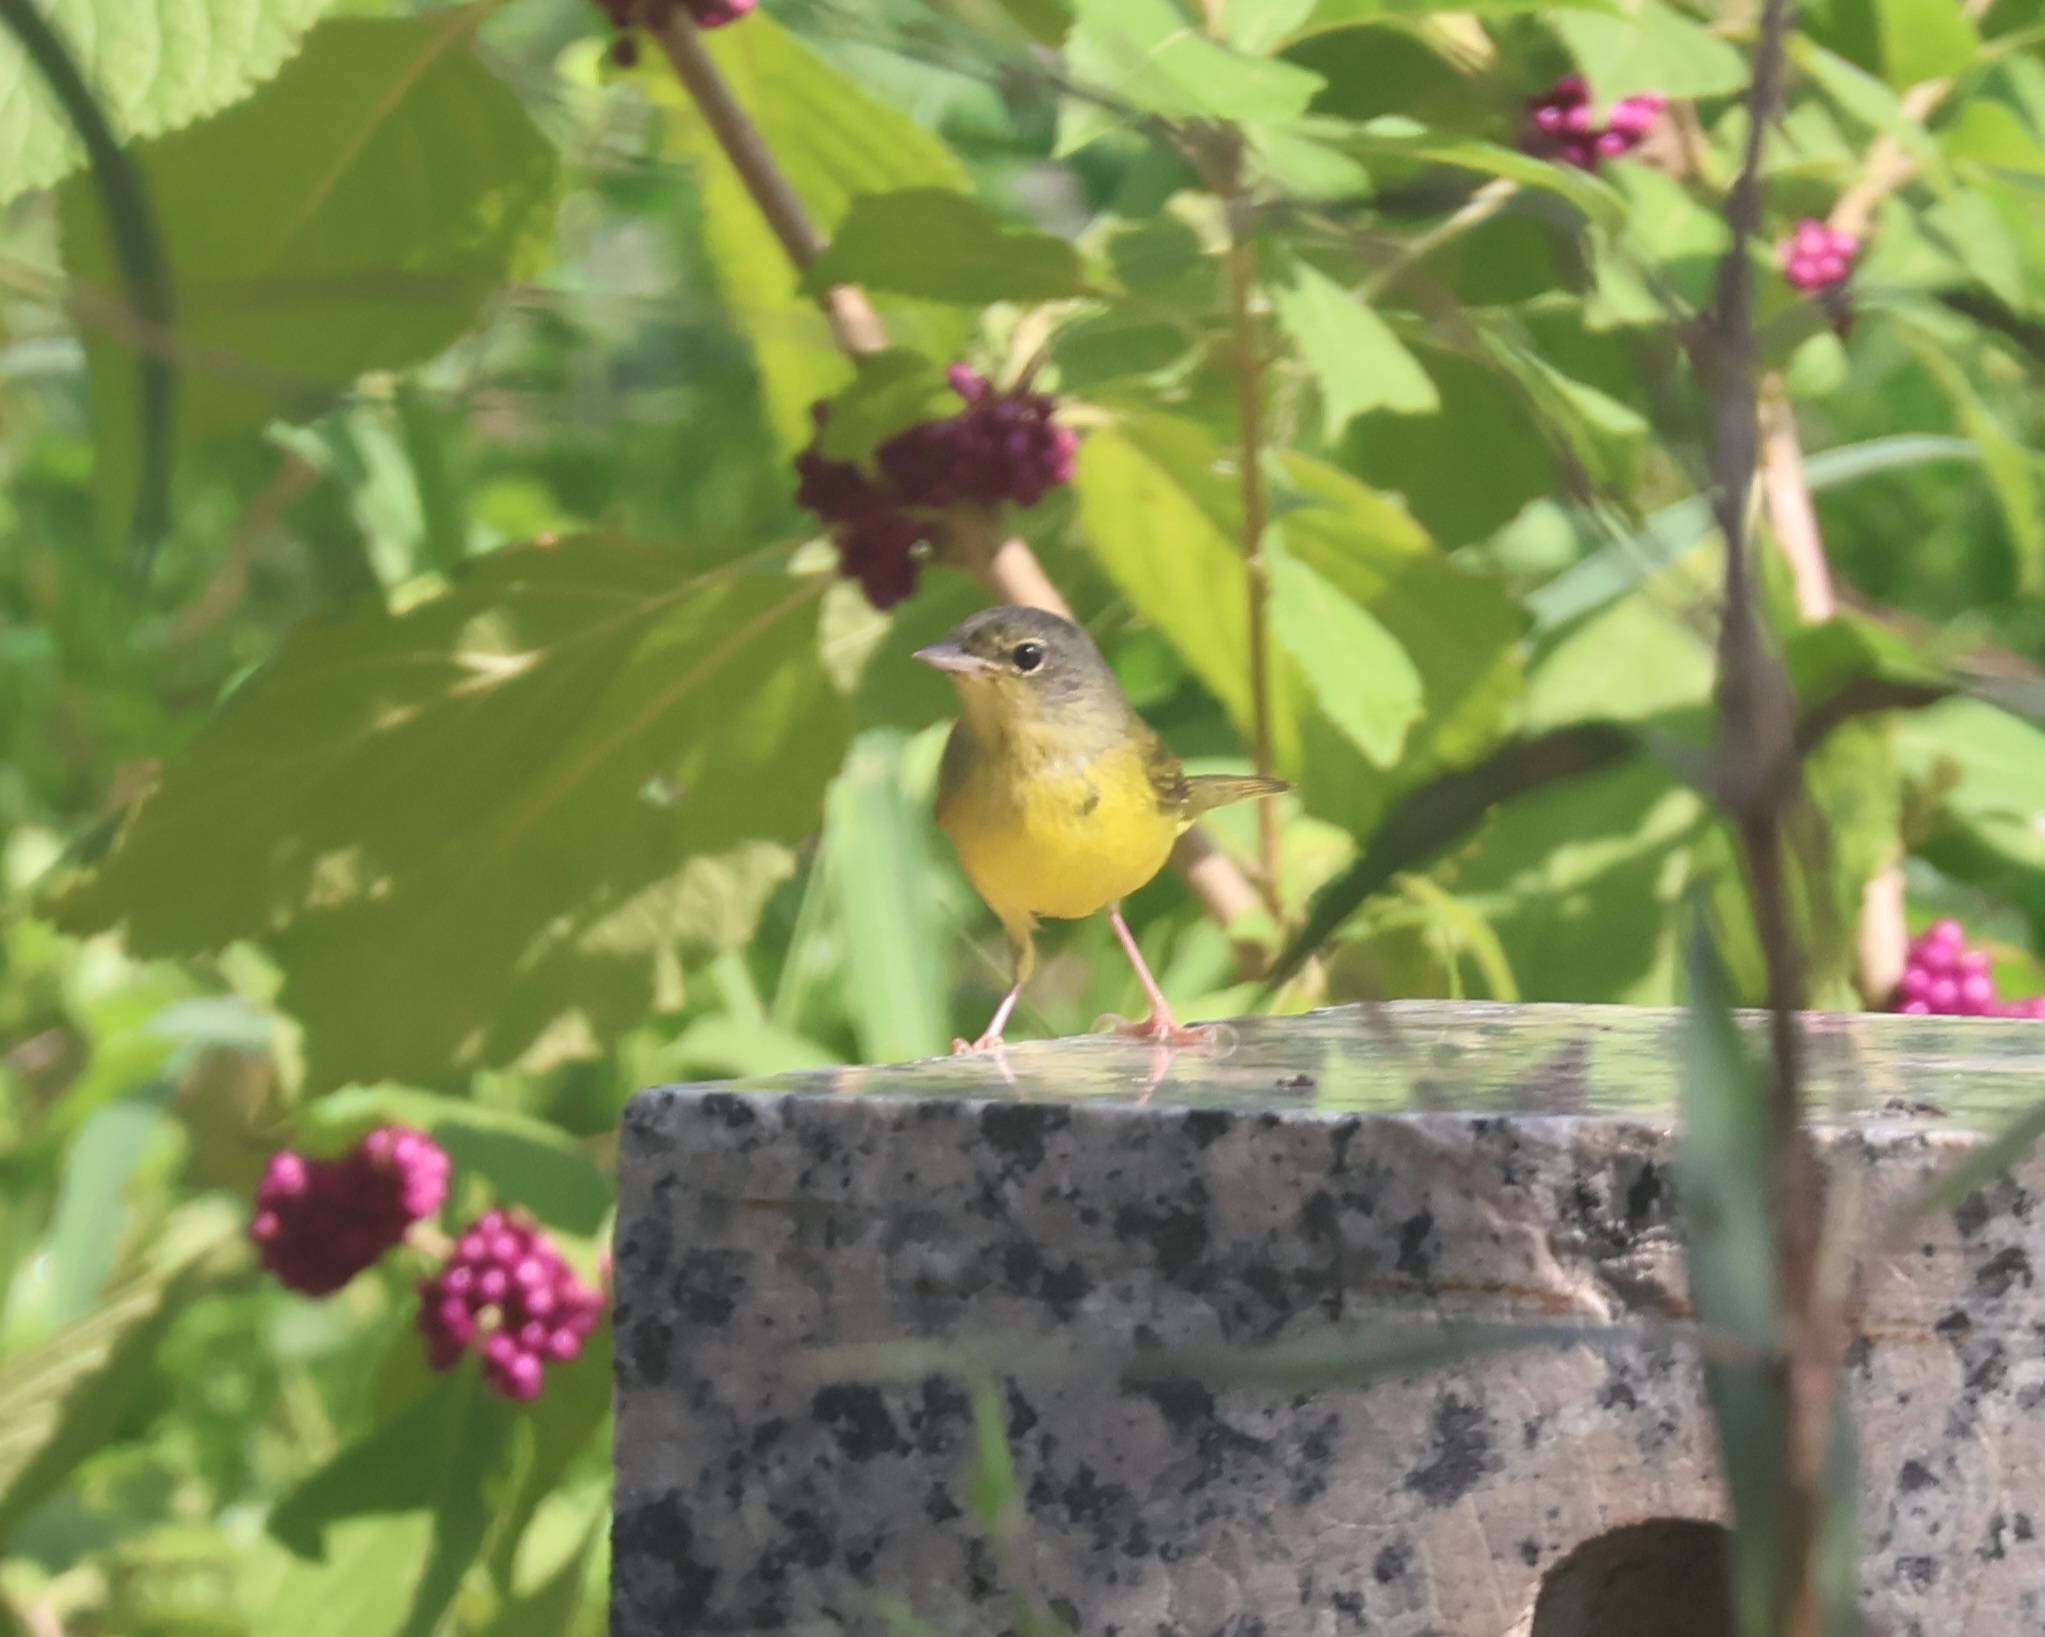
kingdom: Animalia
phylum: Chordata
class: Aves
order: Passeriformes
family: Parulidae
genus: Geothlypis
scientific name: Geothlypis philadelphia
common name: Mourning warbler
